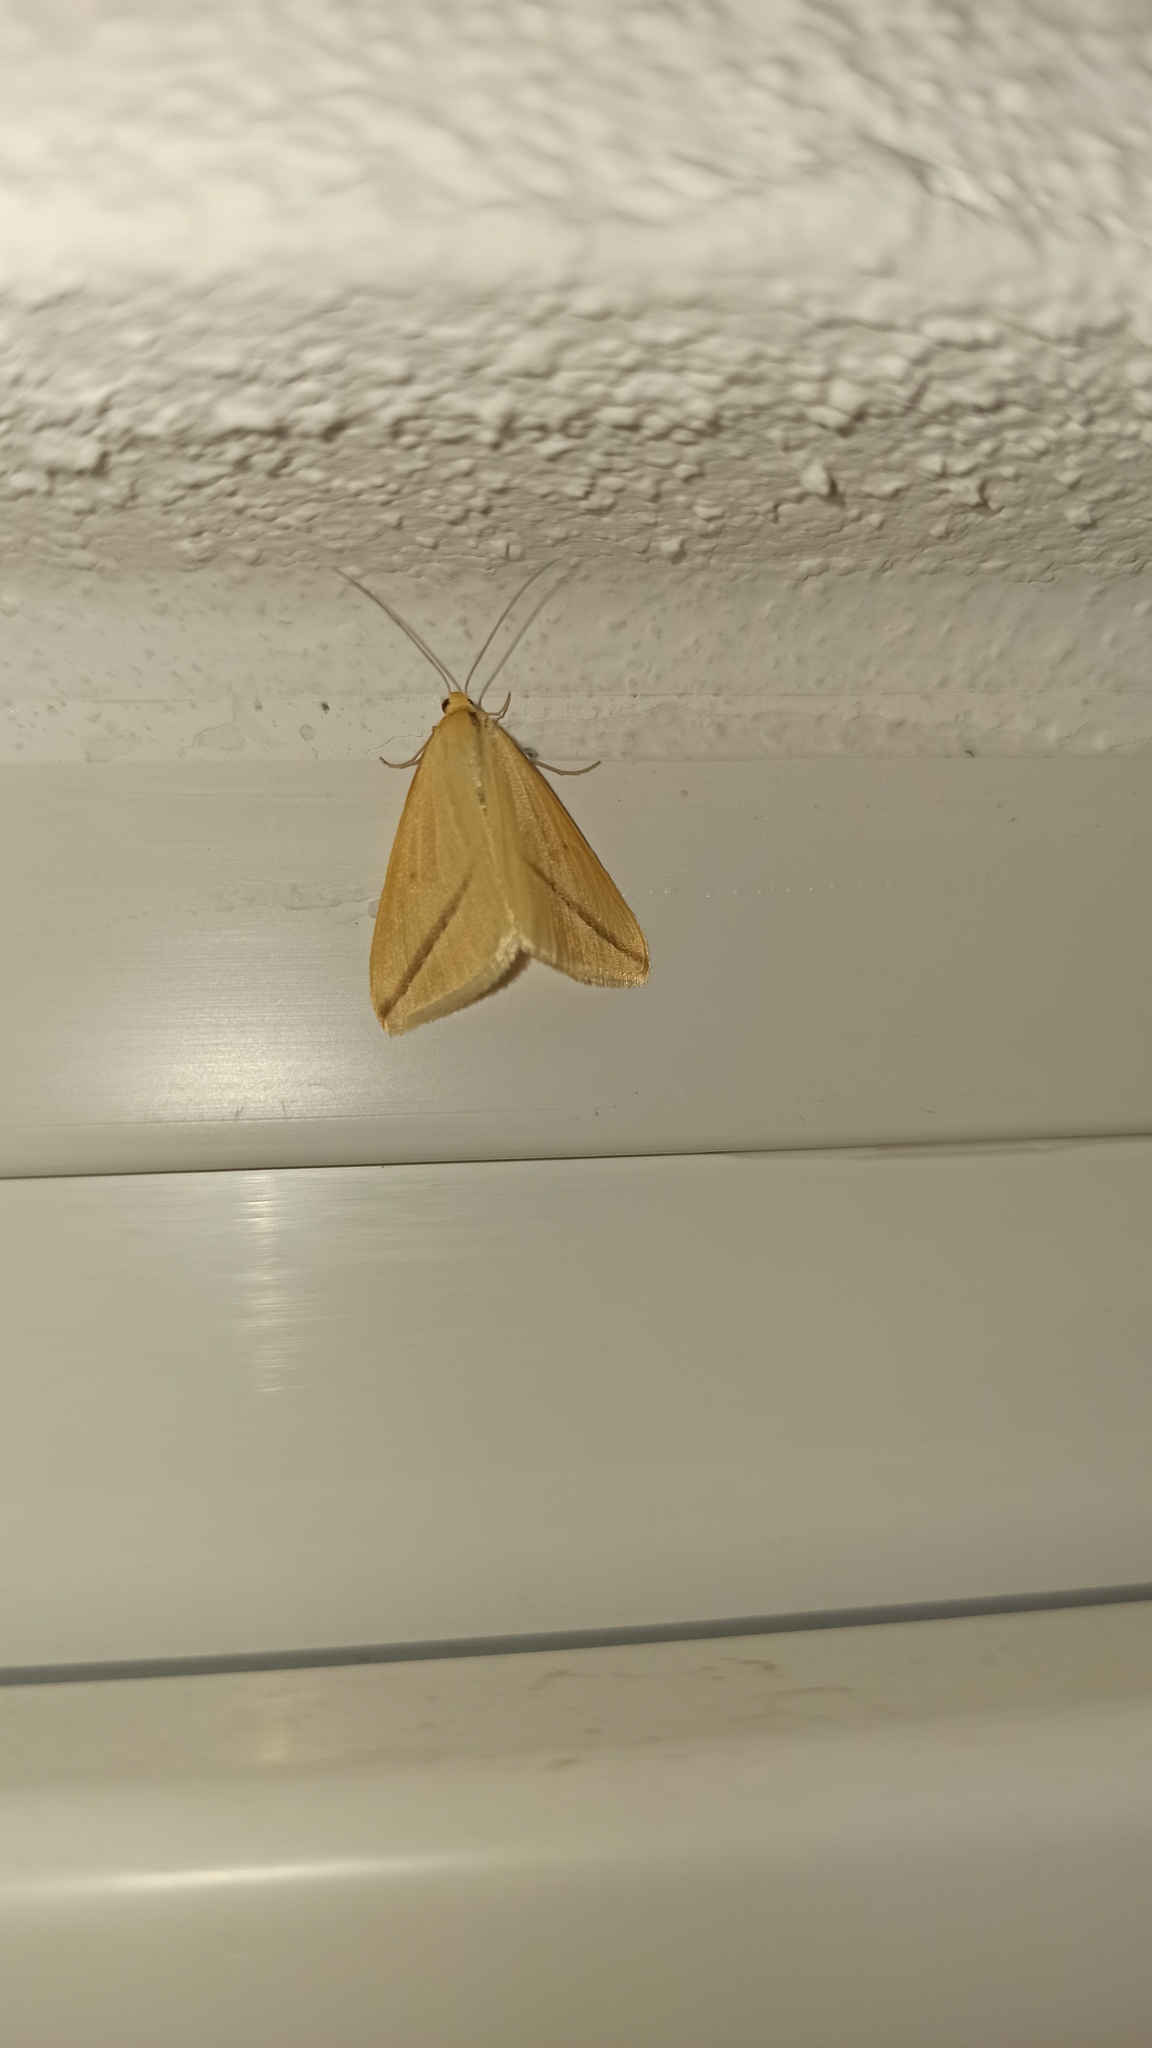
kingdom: Animalia
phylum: Arthropoda
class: Insecta
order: Lepidoptera
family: Geometridae
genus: Rhodometra
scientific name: Rhodometra sacraria
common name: Vestal
